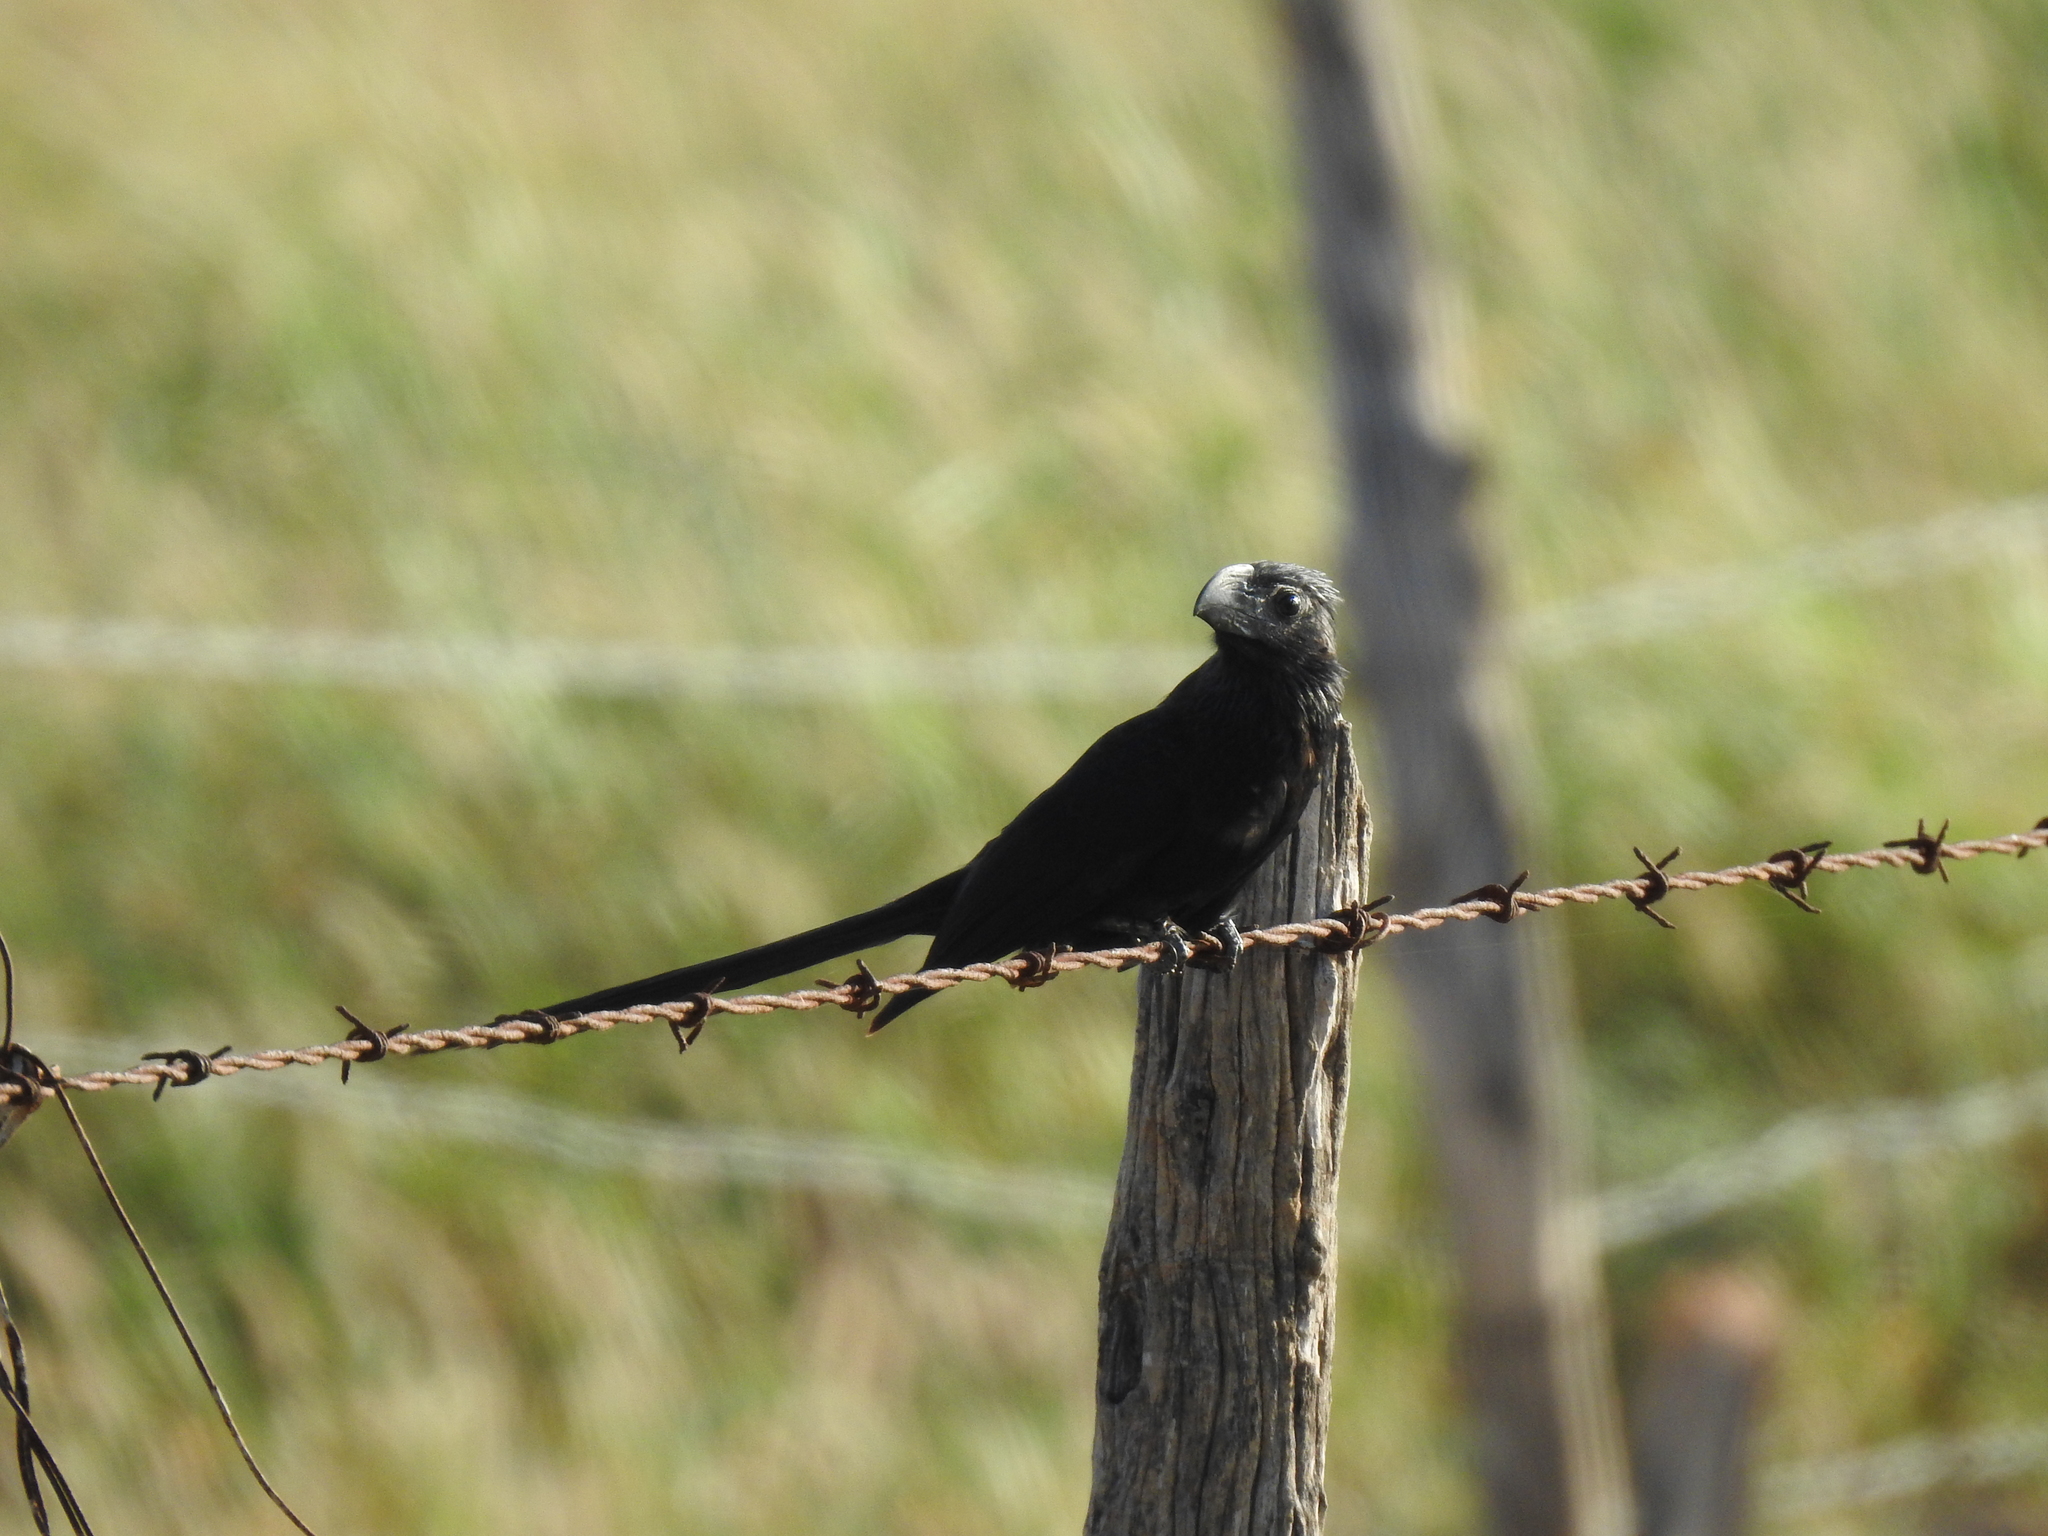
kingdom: Animalia
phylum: Chordata
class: Aves
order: Cuculiformes
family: Cuculidae
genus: Crotophaga
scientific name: Crotophaga sulcirostris
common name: Groove-billed ani
